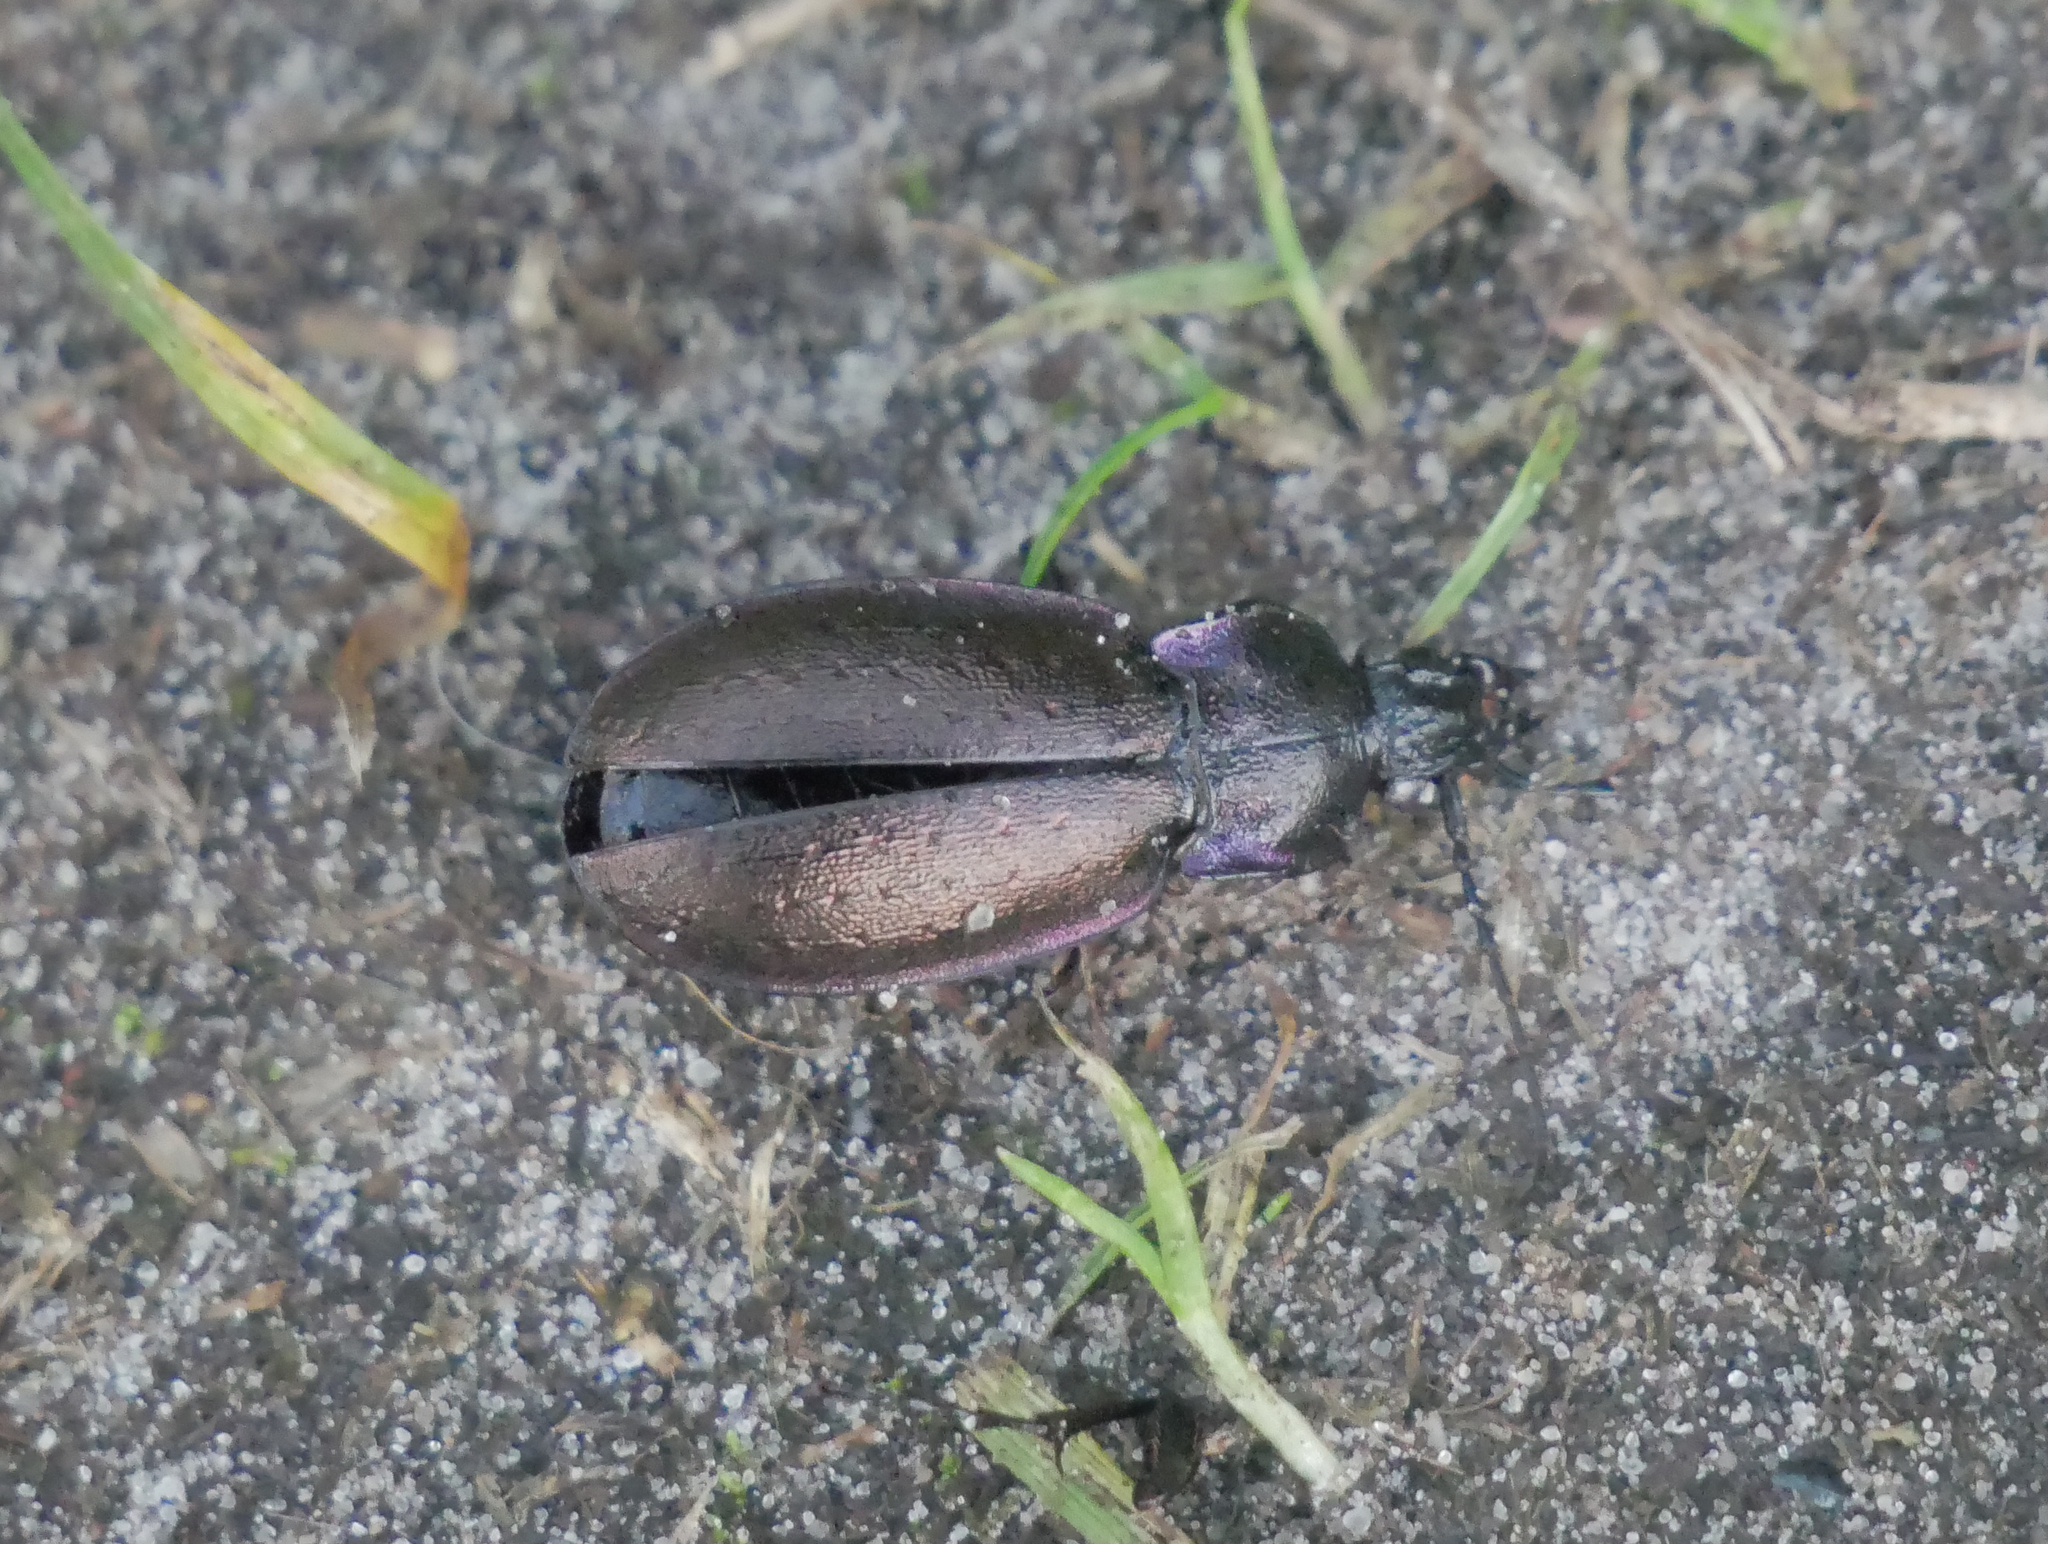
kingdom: Animalia
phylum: Arthropoda
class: Insecta
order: Coleoptera
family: Carabidae
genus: Carabus
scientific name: Carabus nemoralis
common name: European ground beetle
